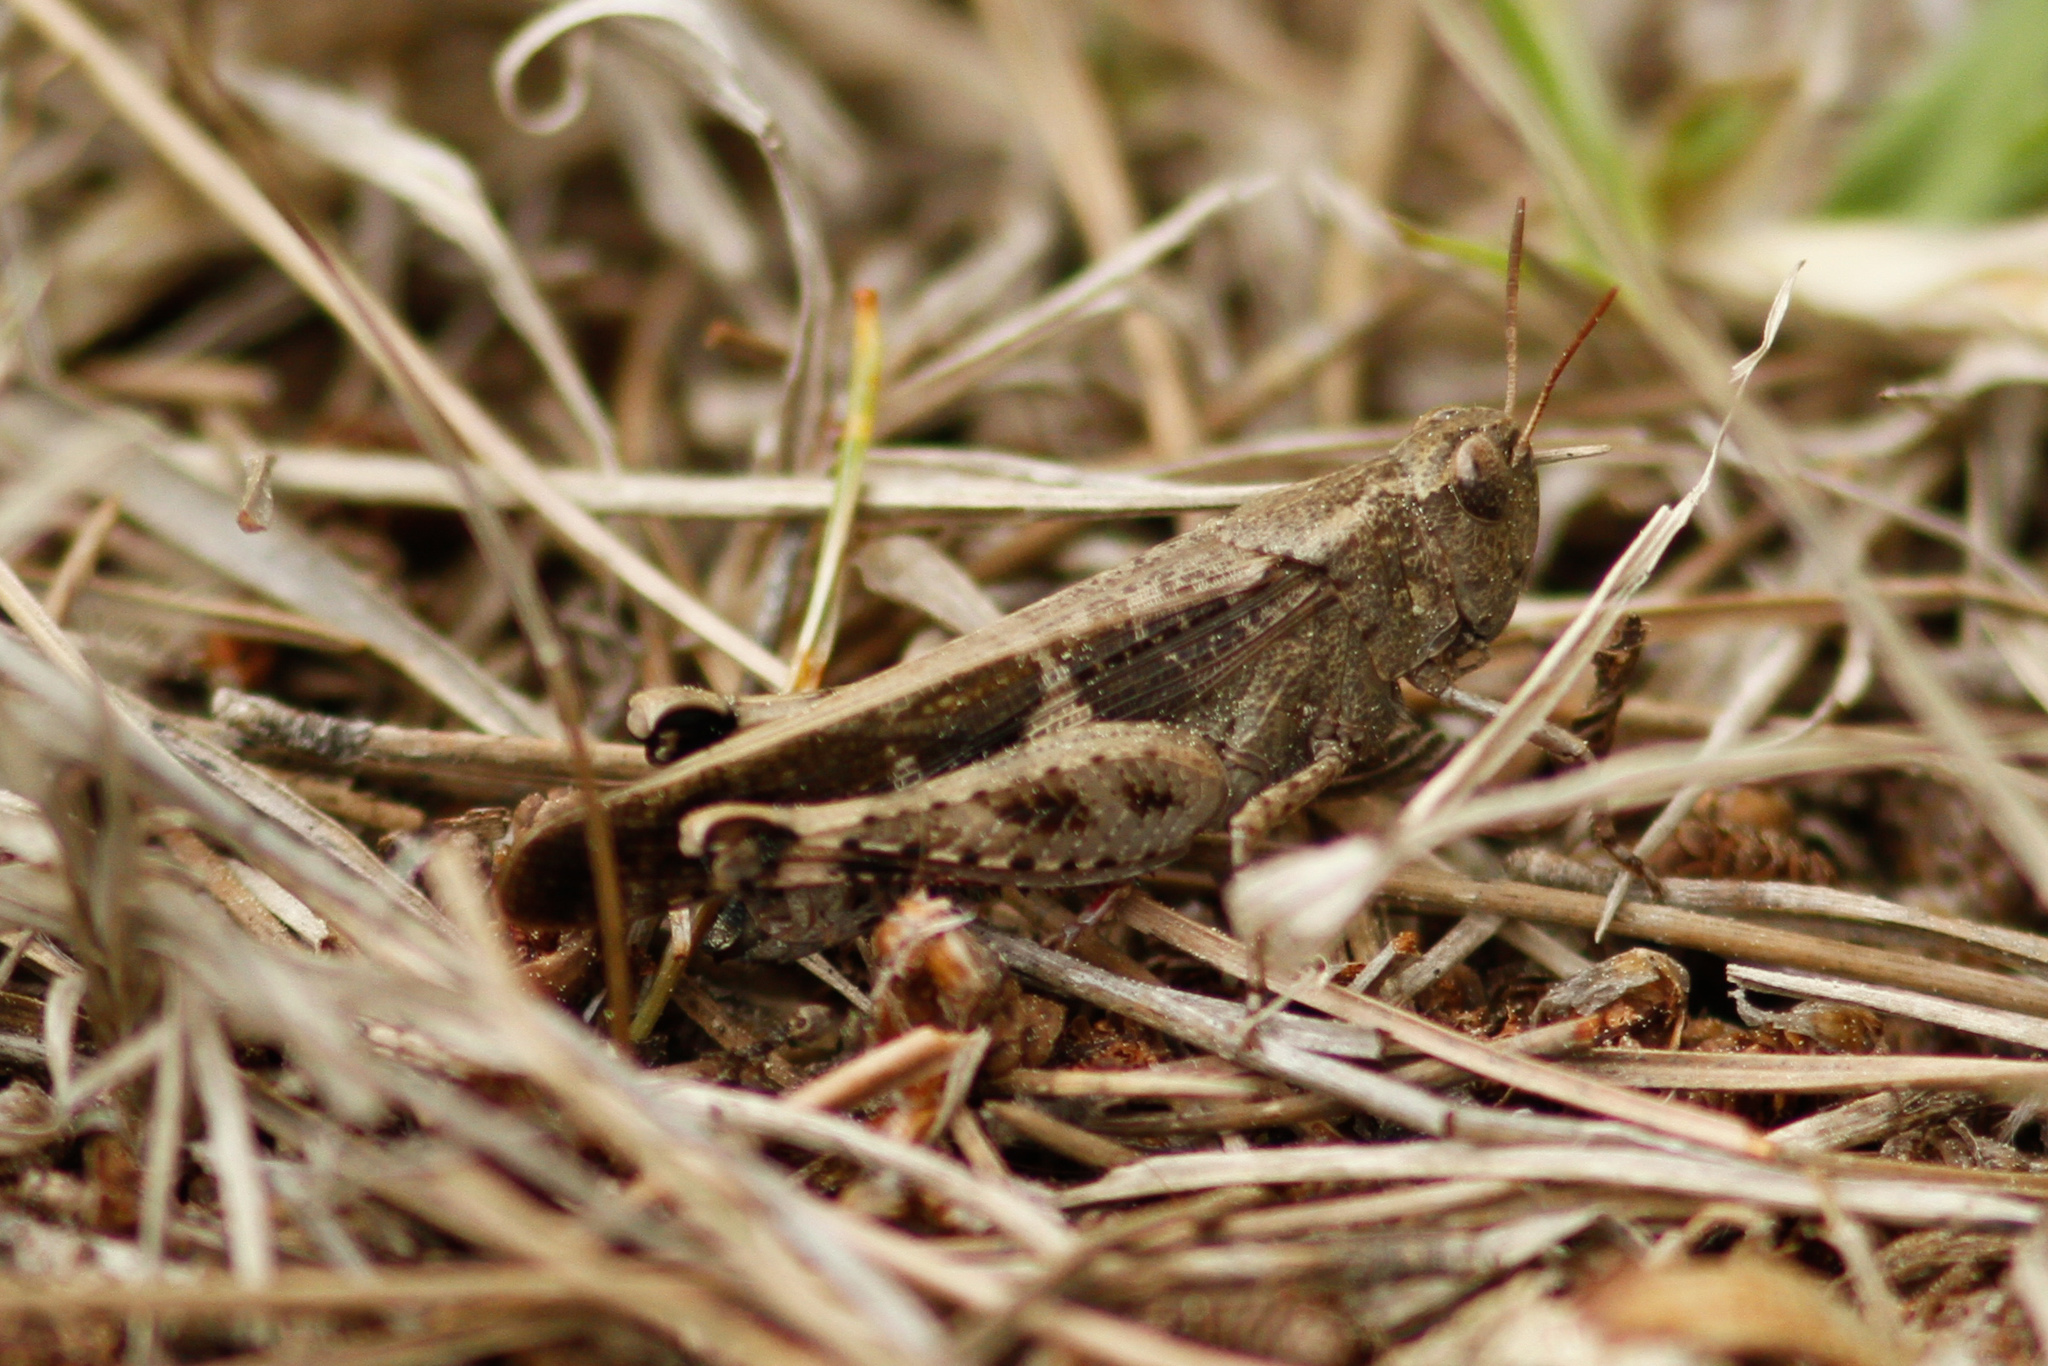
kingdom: Animalia
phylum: Arthropoda
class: Insecta
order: Orthoptera
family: Acrididae
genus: Aiolopus
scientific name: Aiolopus strepens
